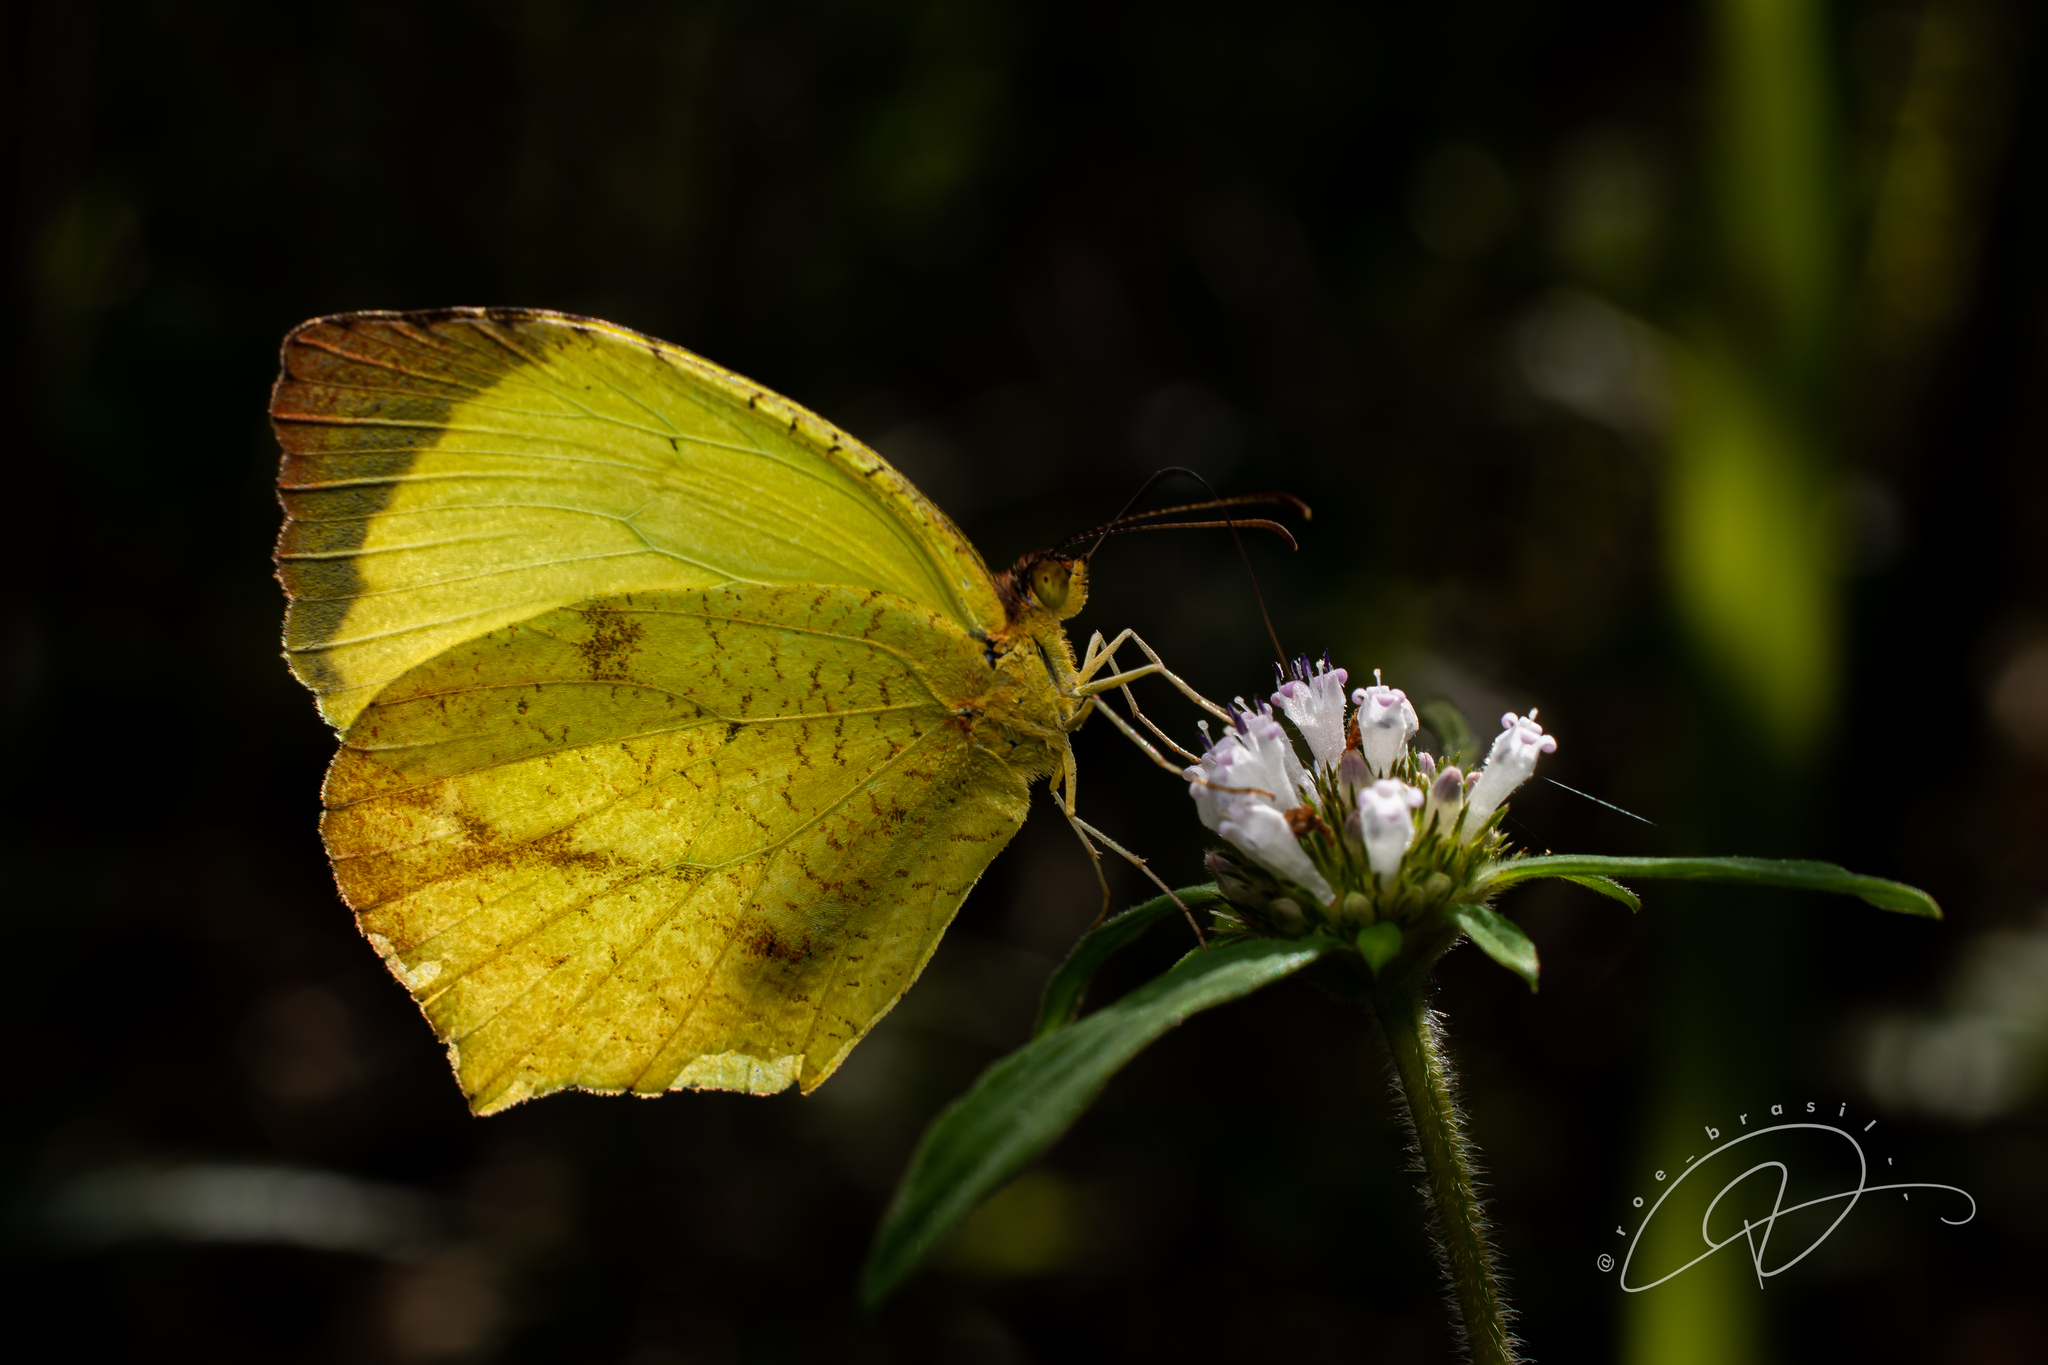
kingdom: Animalia
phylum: Arthropoda
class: Insecta
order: Lepidoptera
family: Pieridae
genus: Abaeis
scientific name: Abaeis
